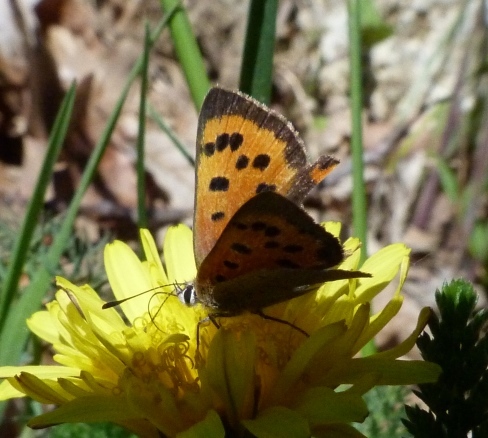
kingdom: Animalia
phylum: Arthropoda
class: Insecta
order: Lepidoptera
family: Lycaenidae
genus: Lycaena
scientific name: Lycaena phlaeas
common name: Small copper
